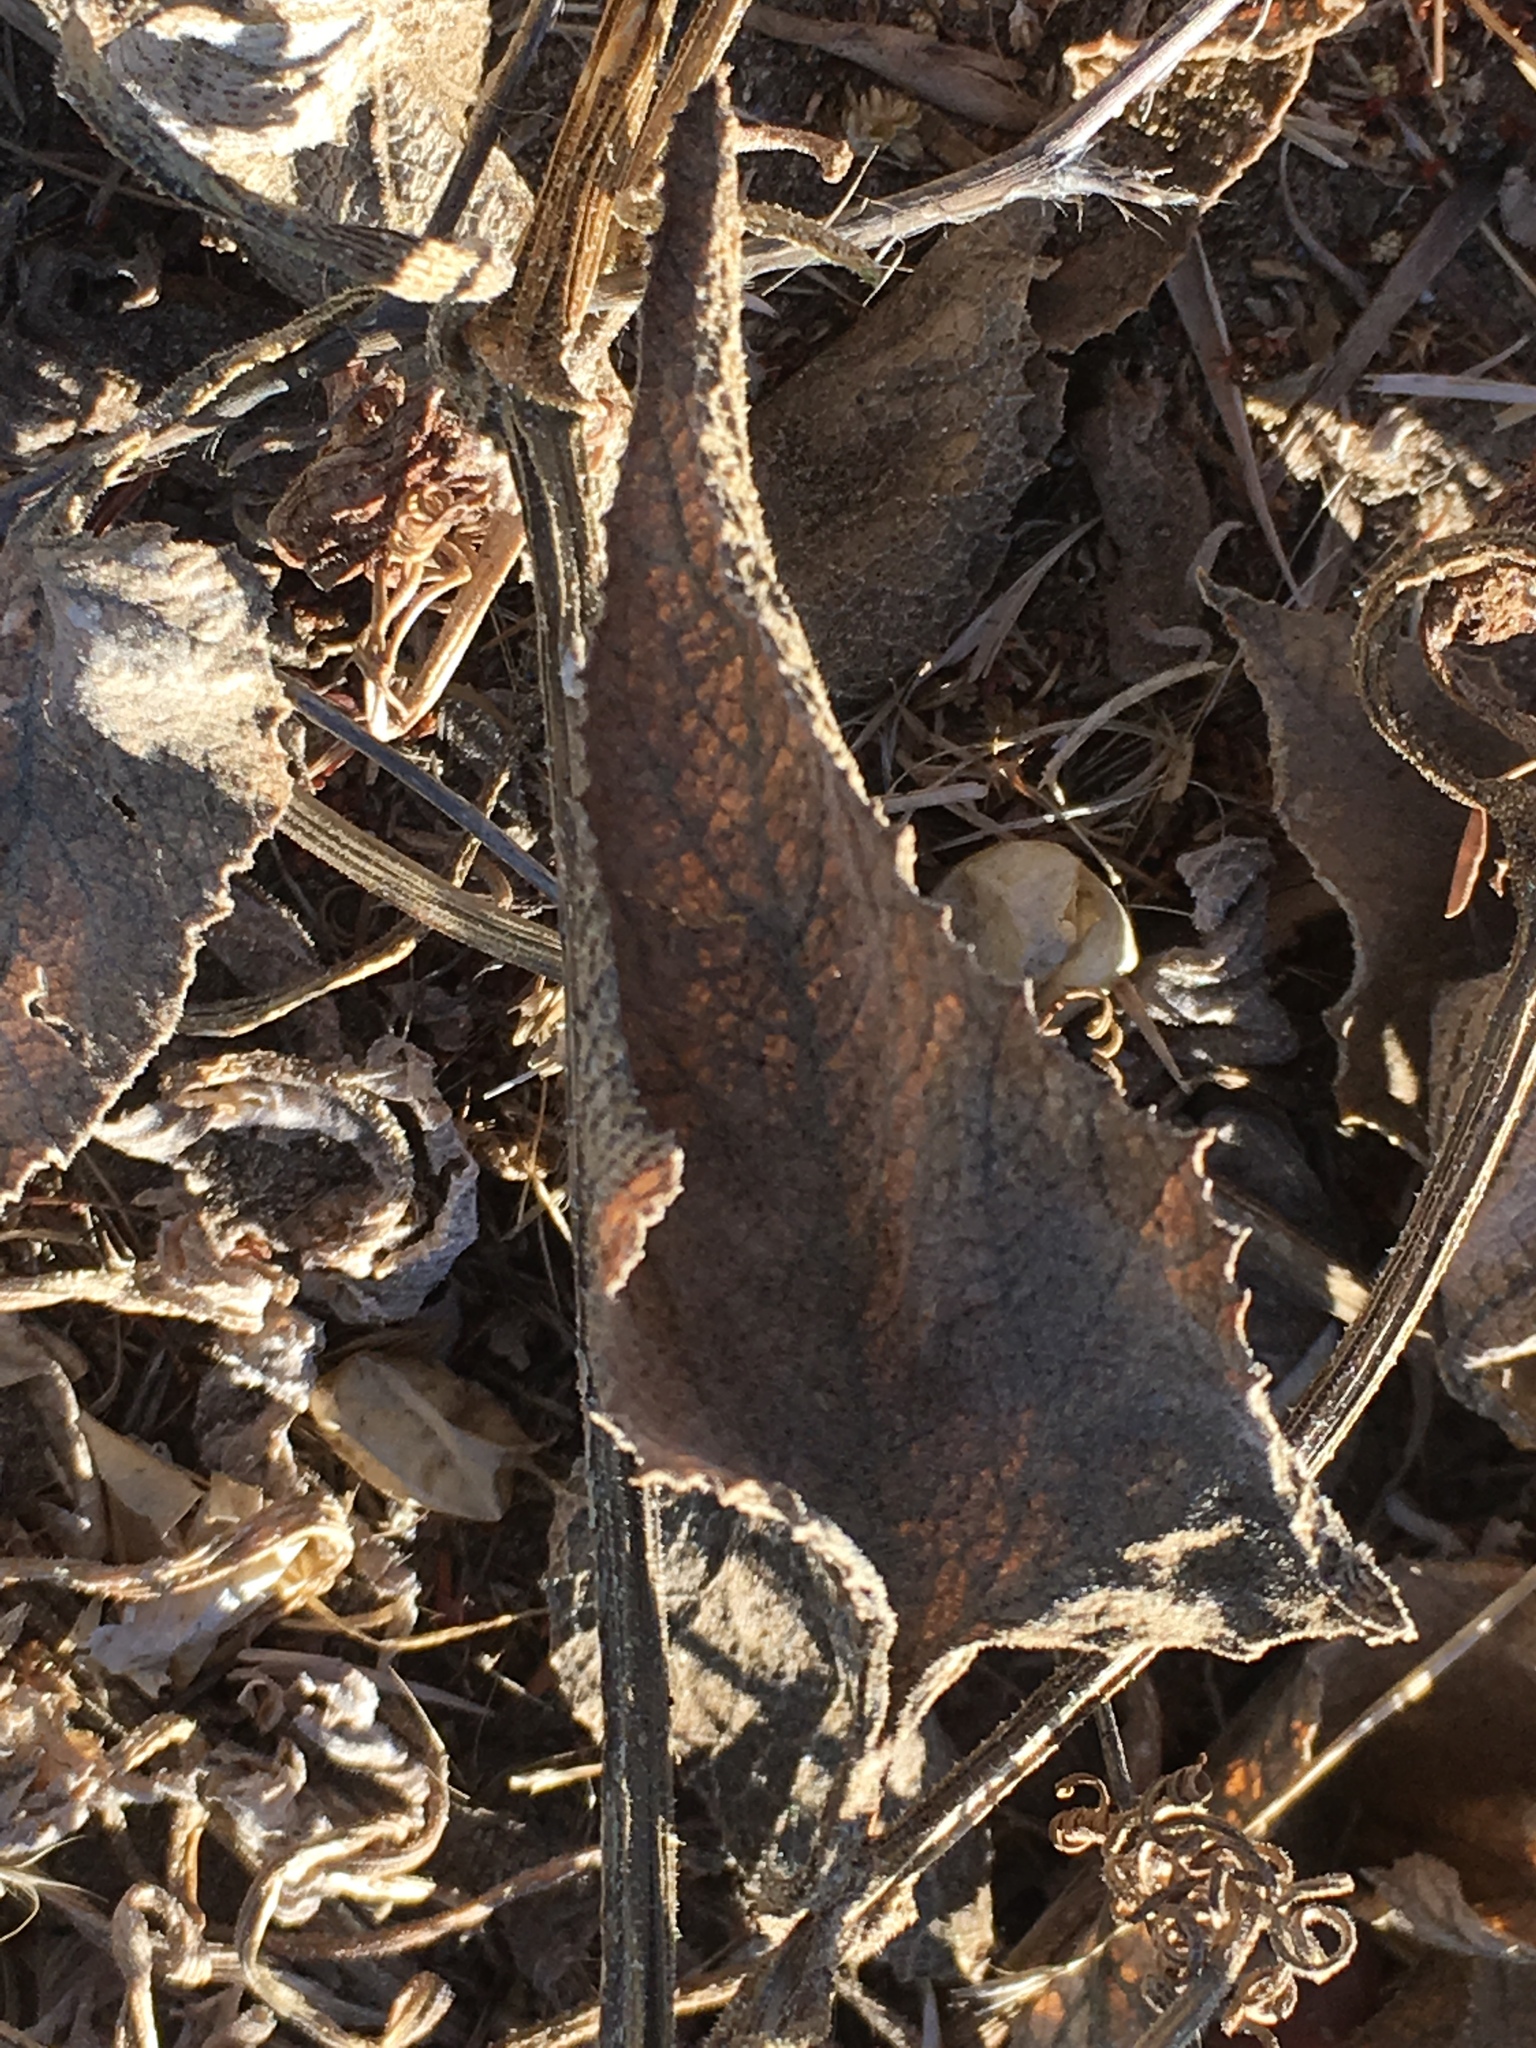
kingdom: Plantae
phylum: Tracheophyta
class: Magnoliopsida
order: Cucurbitales
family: Cucurbitaceae
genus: Cucurbita
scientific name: Cucurbita foetidissima
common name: Buffalo gourd
